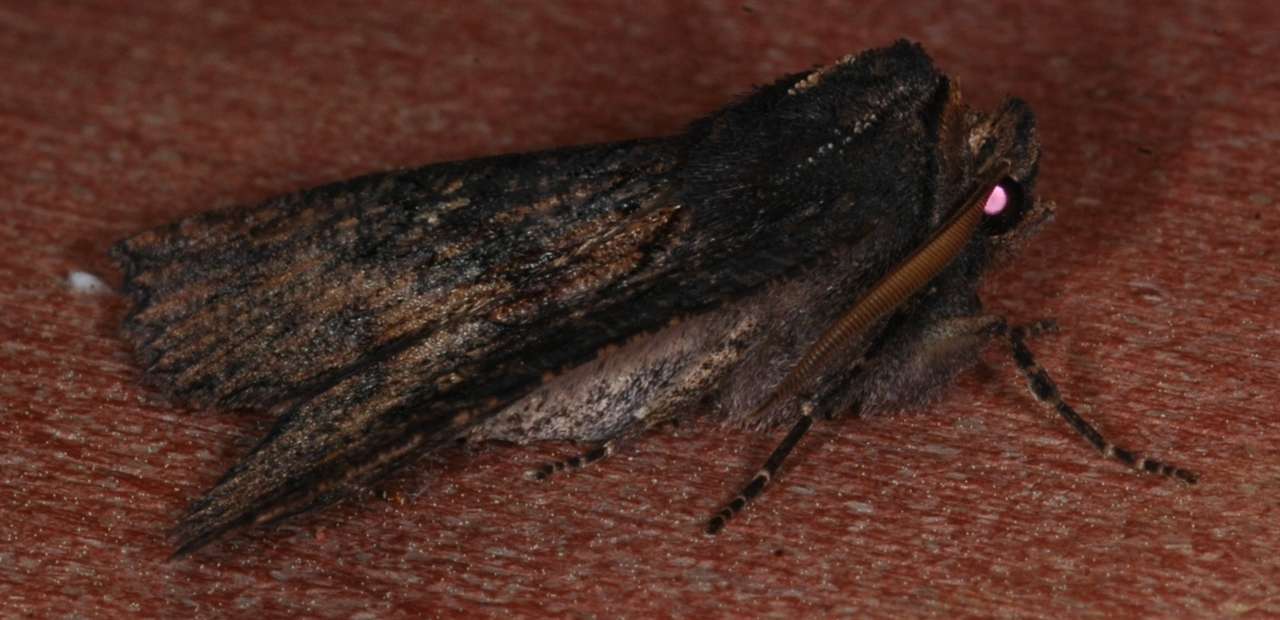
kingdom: Animalia
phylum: Arthropoda
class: Insecta
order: Lepidoptera
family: Geometridae
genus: Nisista
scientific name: Nisista serrata
